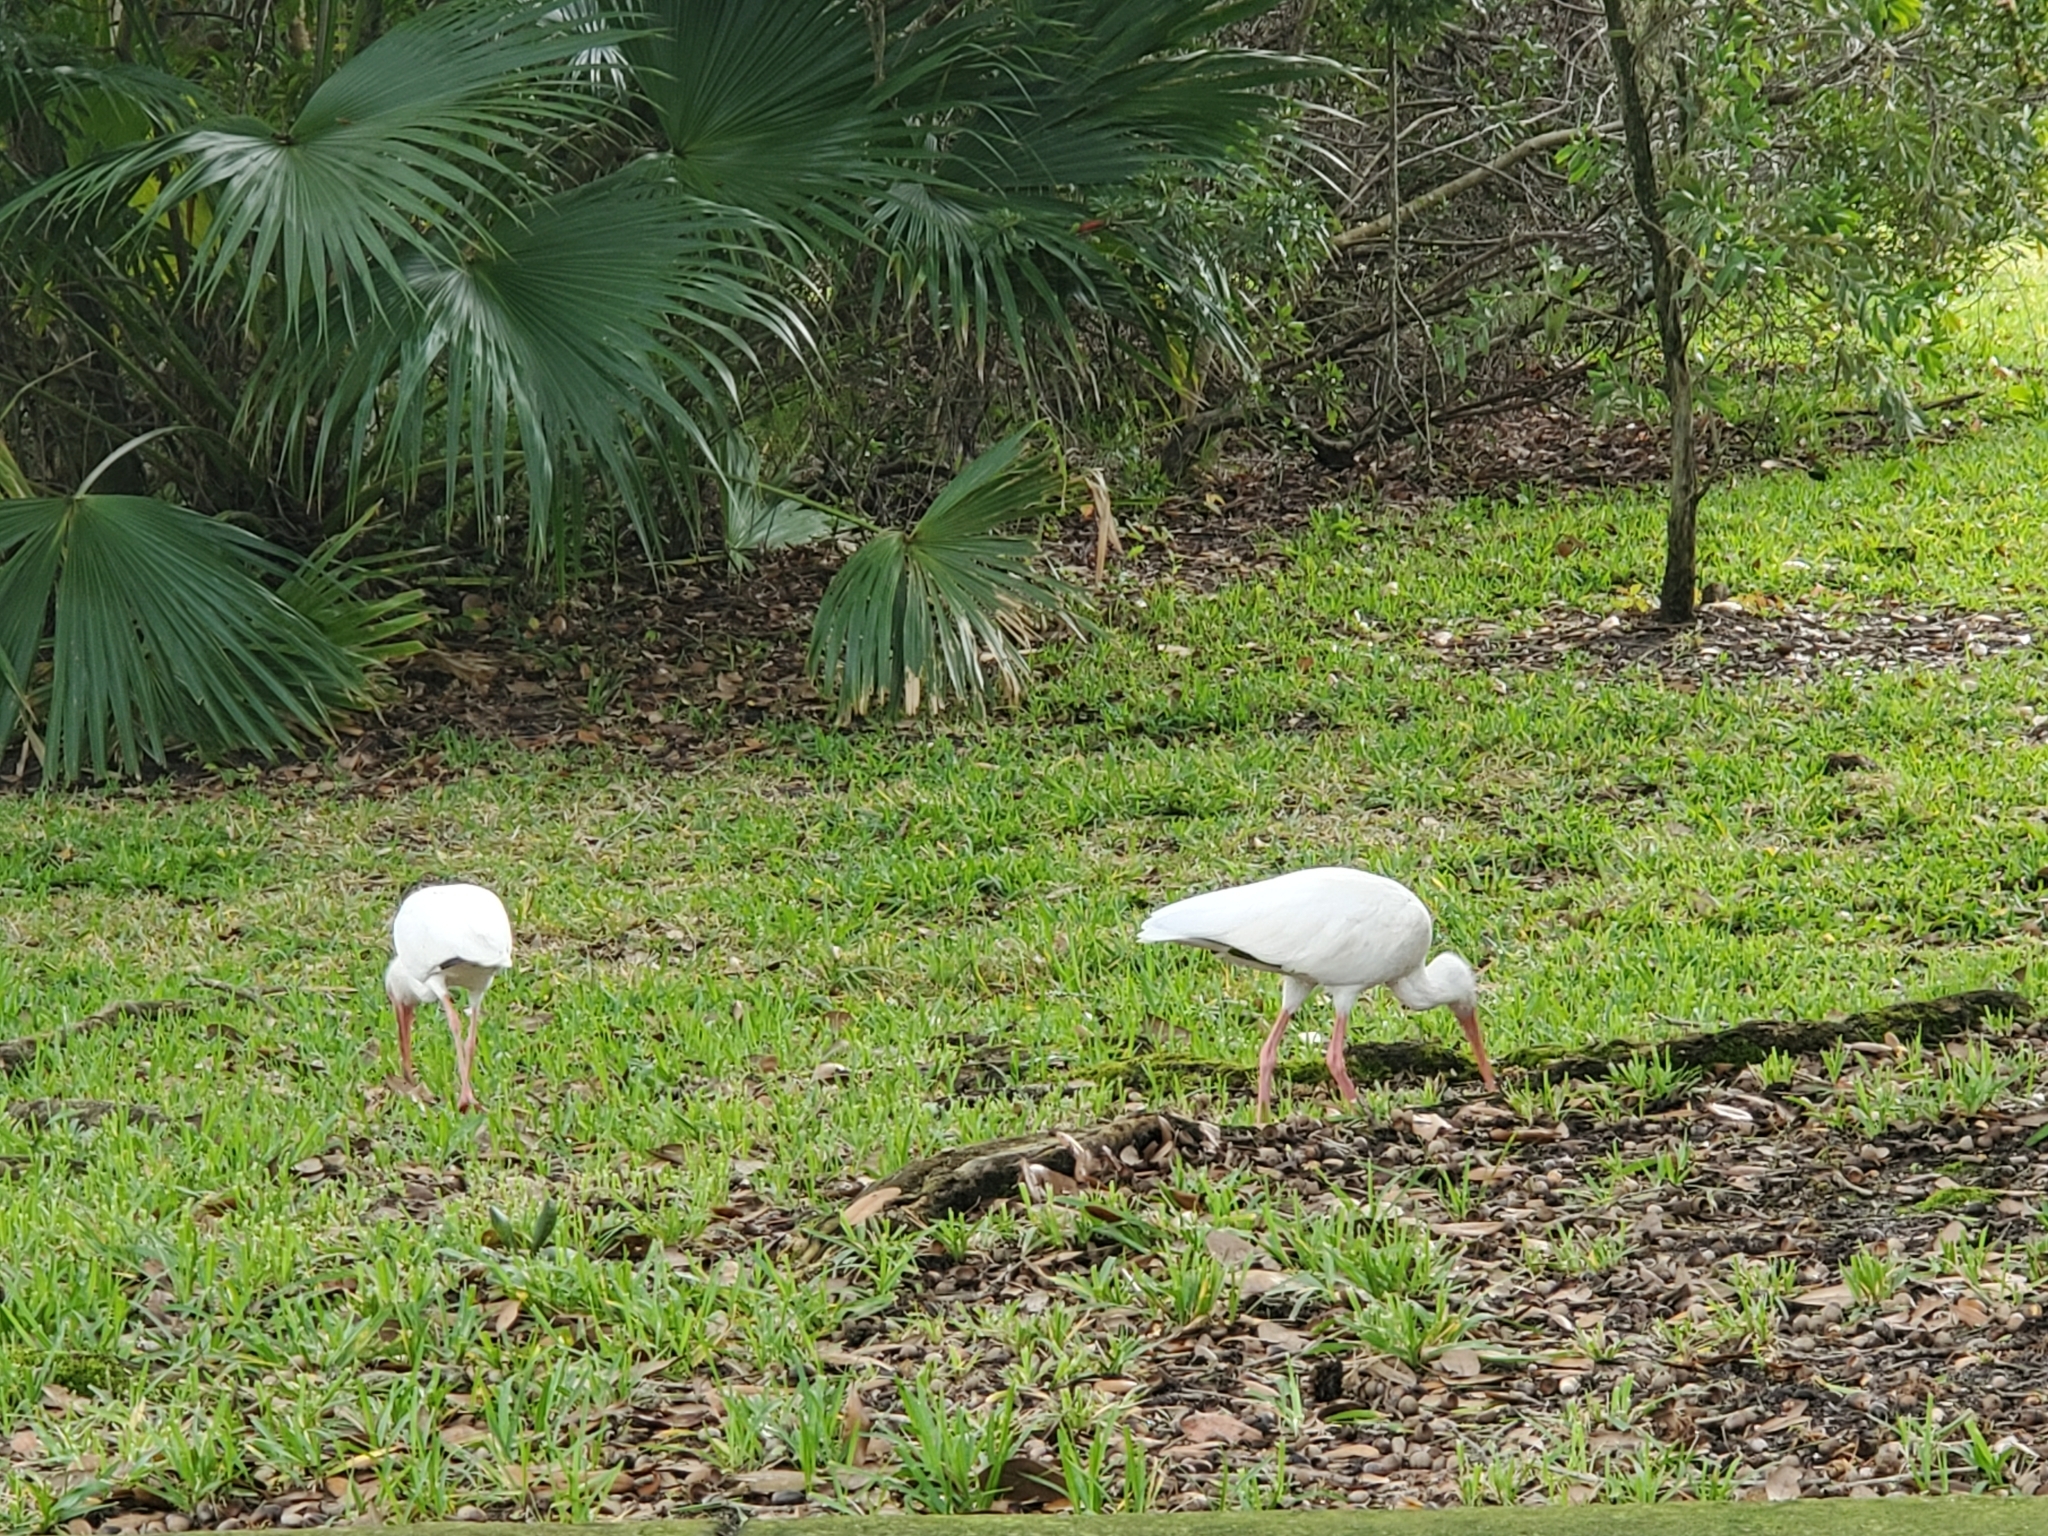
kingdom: Animalia
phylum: Chordata
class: Aves
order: Pelecaniformes
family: Threskiornithidae
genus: Eudocimus
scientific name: Eudocimus albus
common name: White ibis
